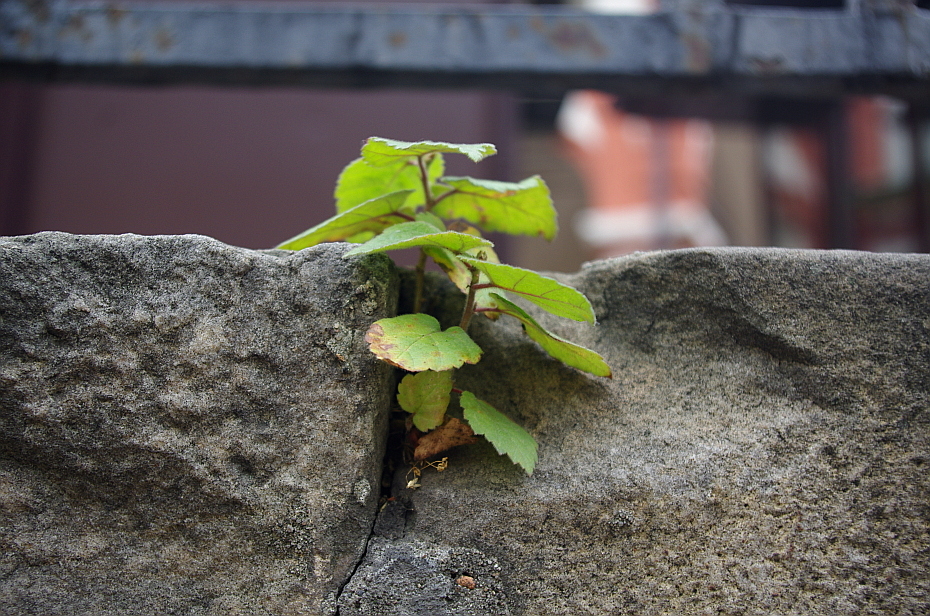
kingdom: Plantae
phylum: Tracheophyta
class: Magnoliopsida
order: Fagales
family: Betulaceae
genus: Betula
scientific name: Betula pubescens
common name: Downy birch
